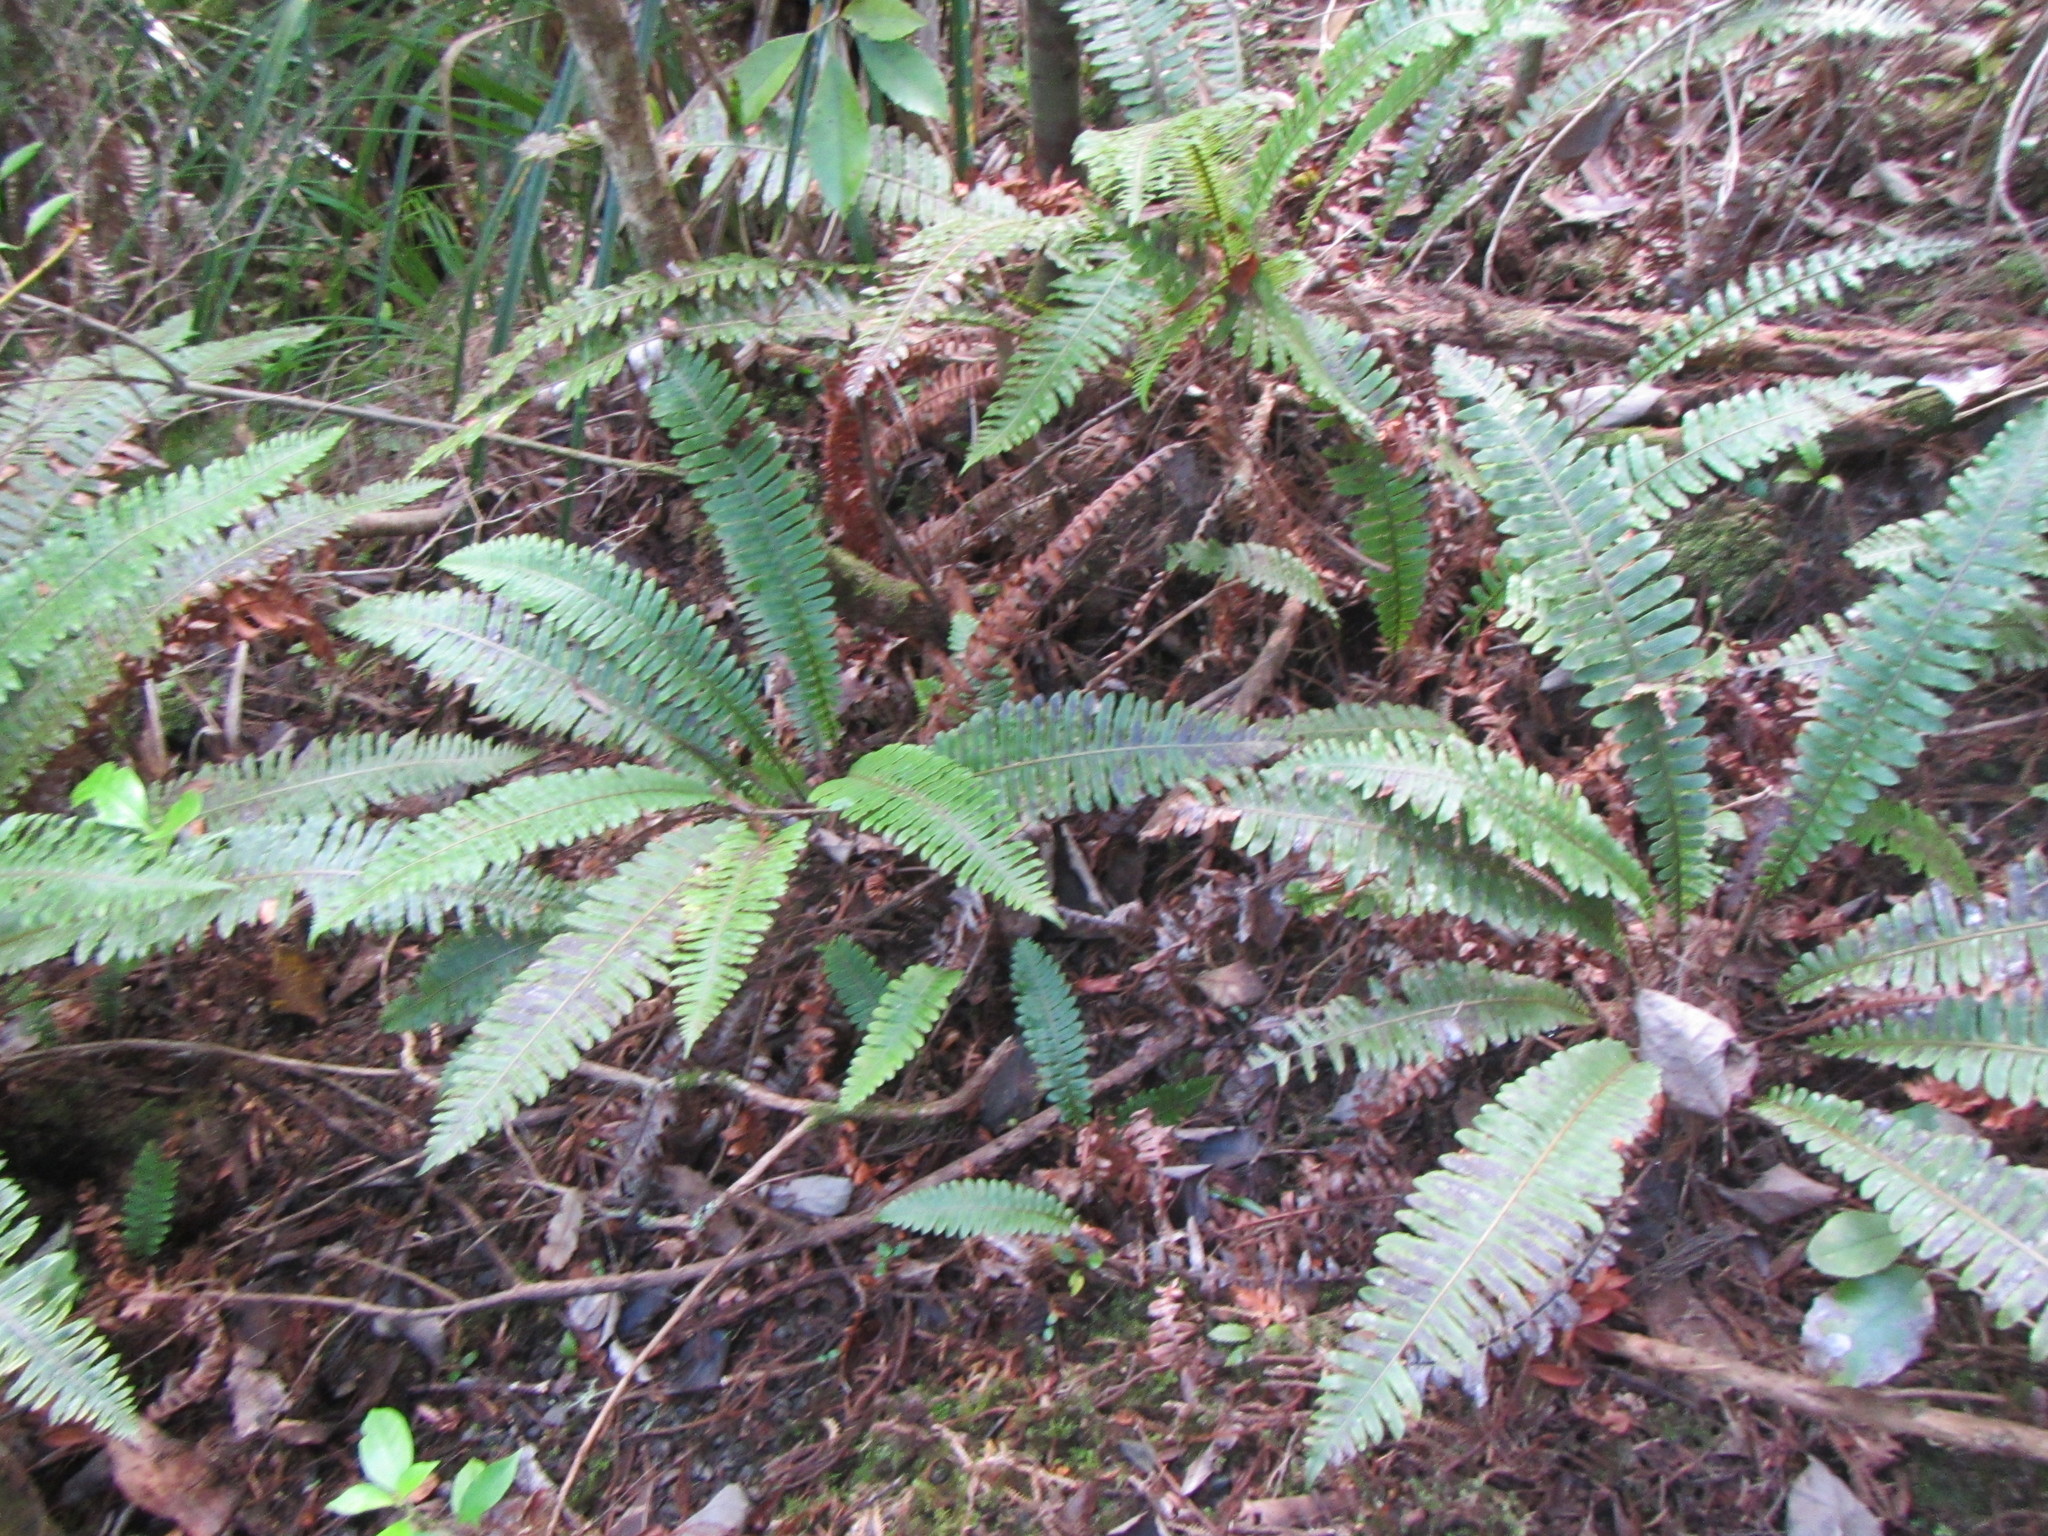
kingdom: Plantae
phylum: Tracheophyta
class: Polypodiopsida
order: Polypodiales
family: Blechnaceae
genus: Lomaria
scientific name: Lomaria discolor
